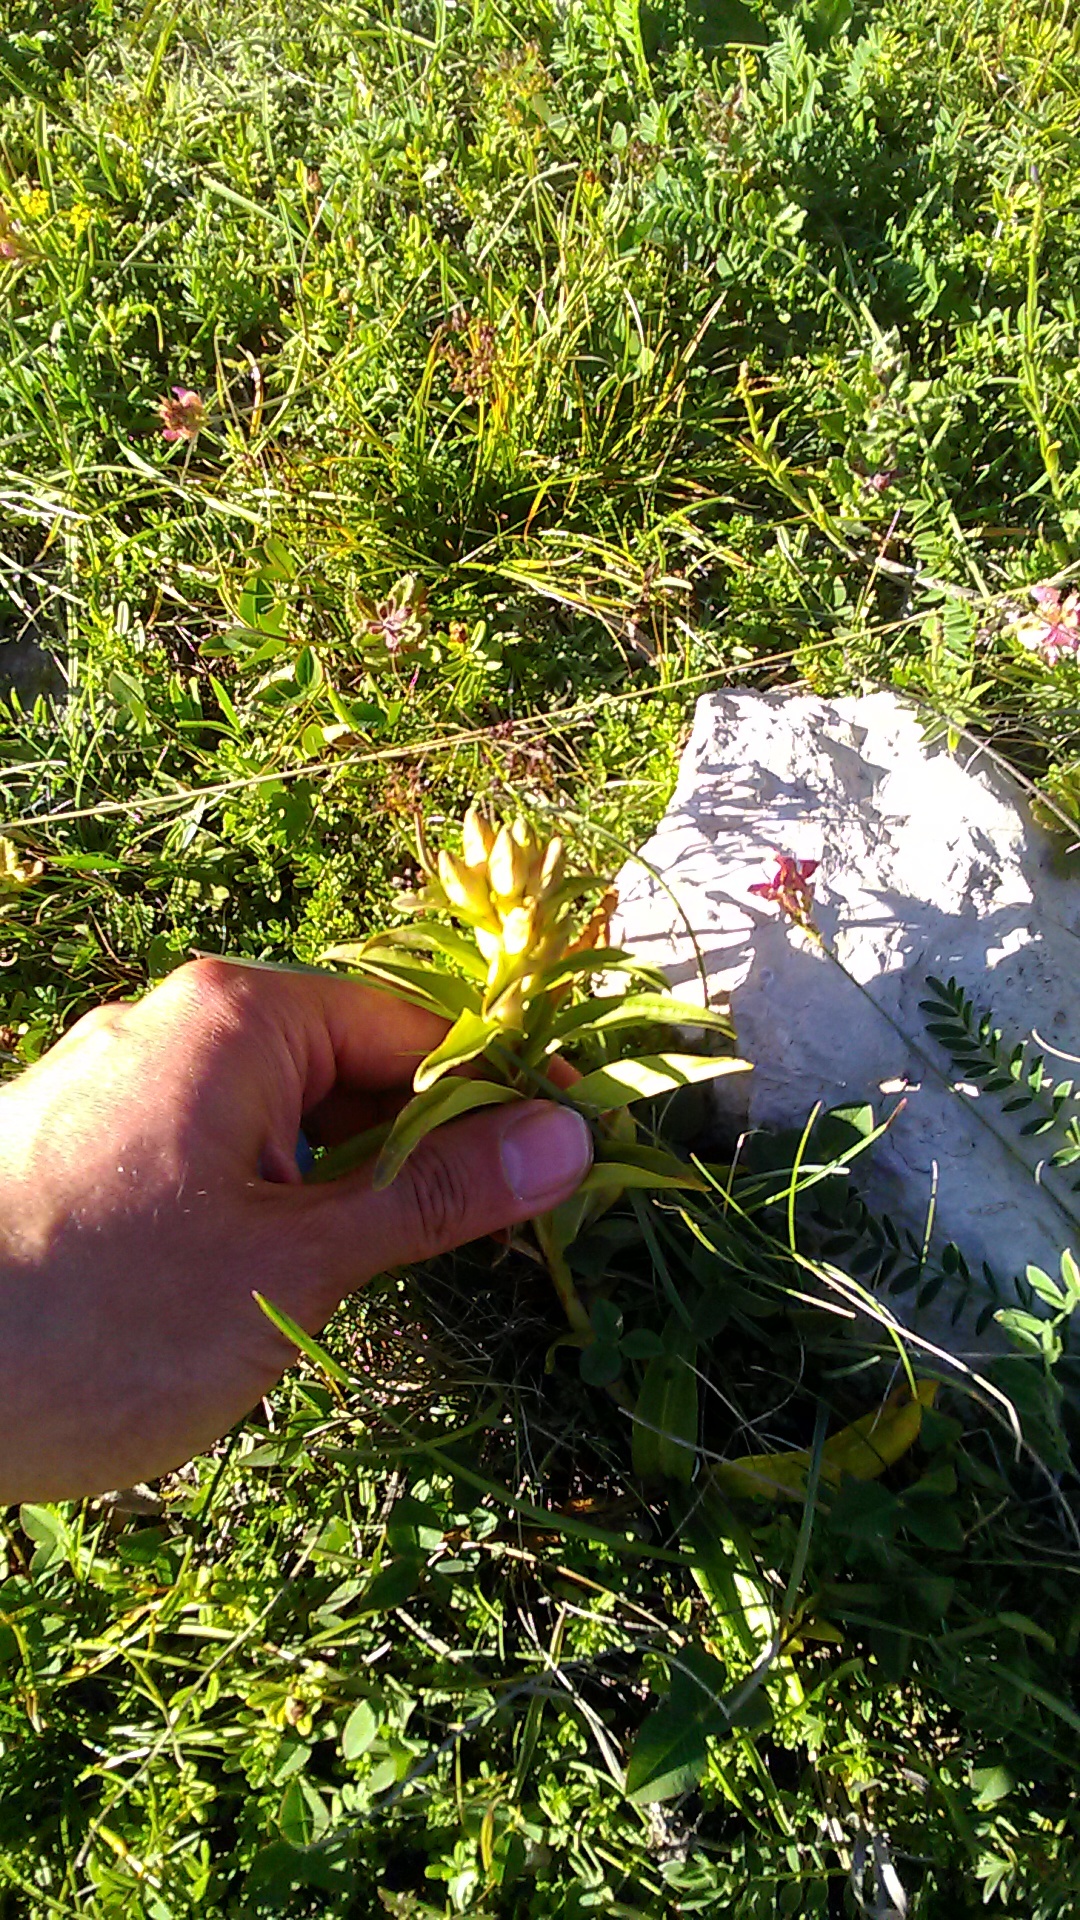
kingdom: Plantae
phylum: Tracheophyta
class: Magnoliopsida
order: Gentianales
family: Gentianaceae
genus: Gentiana
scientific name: Gentiana cruciata
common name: Cross gentian
